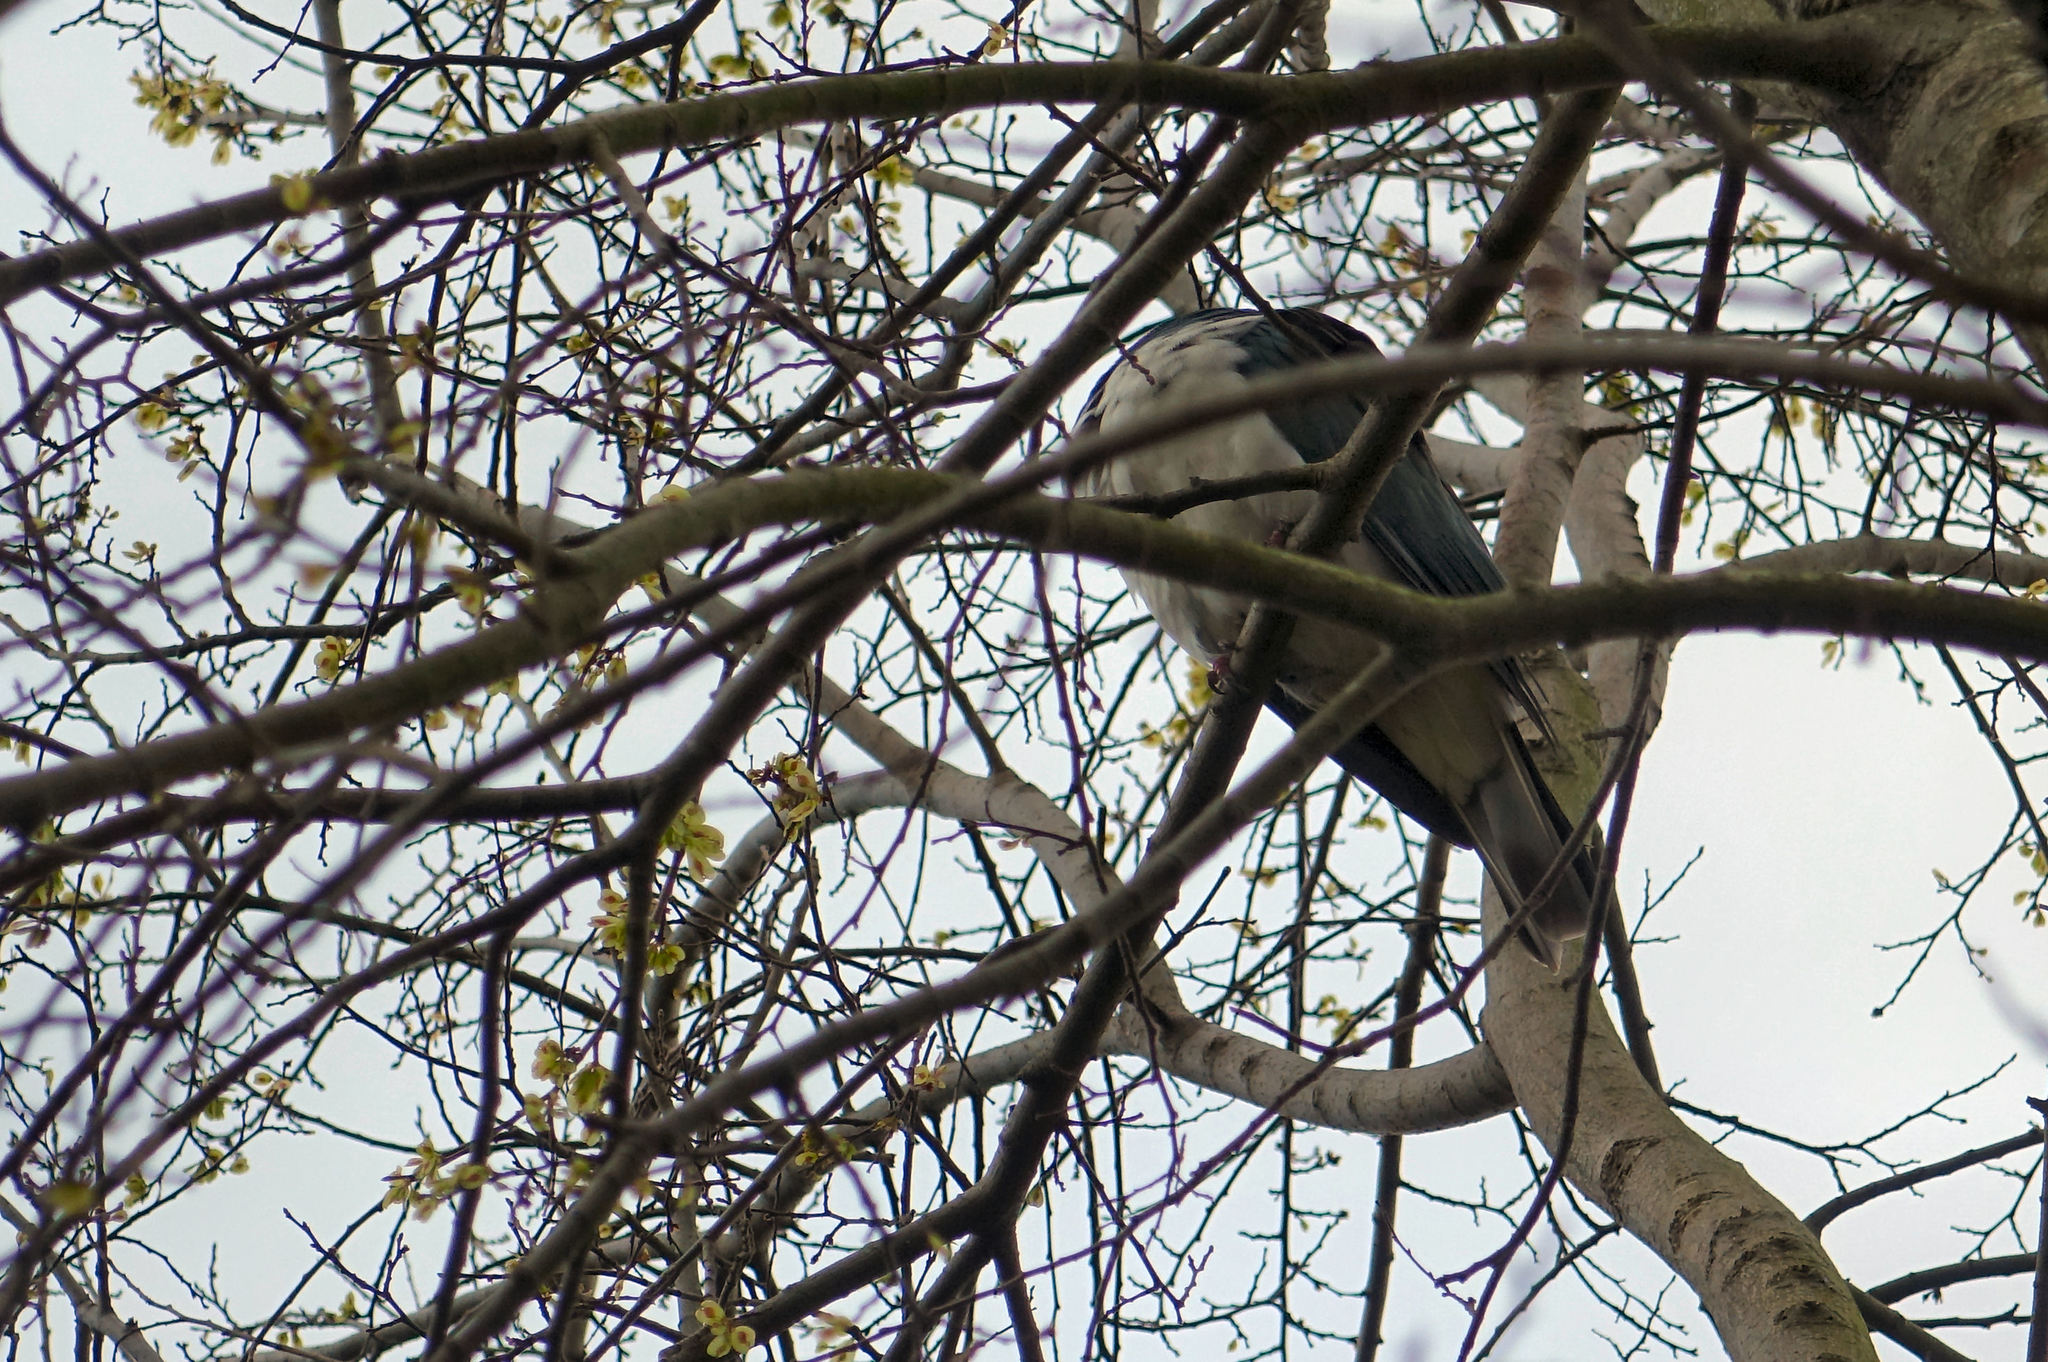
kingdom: Animalia
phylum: Chordata
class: Aves
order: Columbiformes
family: Columbidae
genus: Hemiphaga
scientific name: Hemiphaga novaeseelandiae
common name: New zealand pigeon
